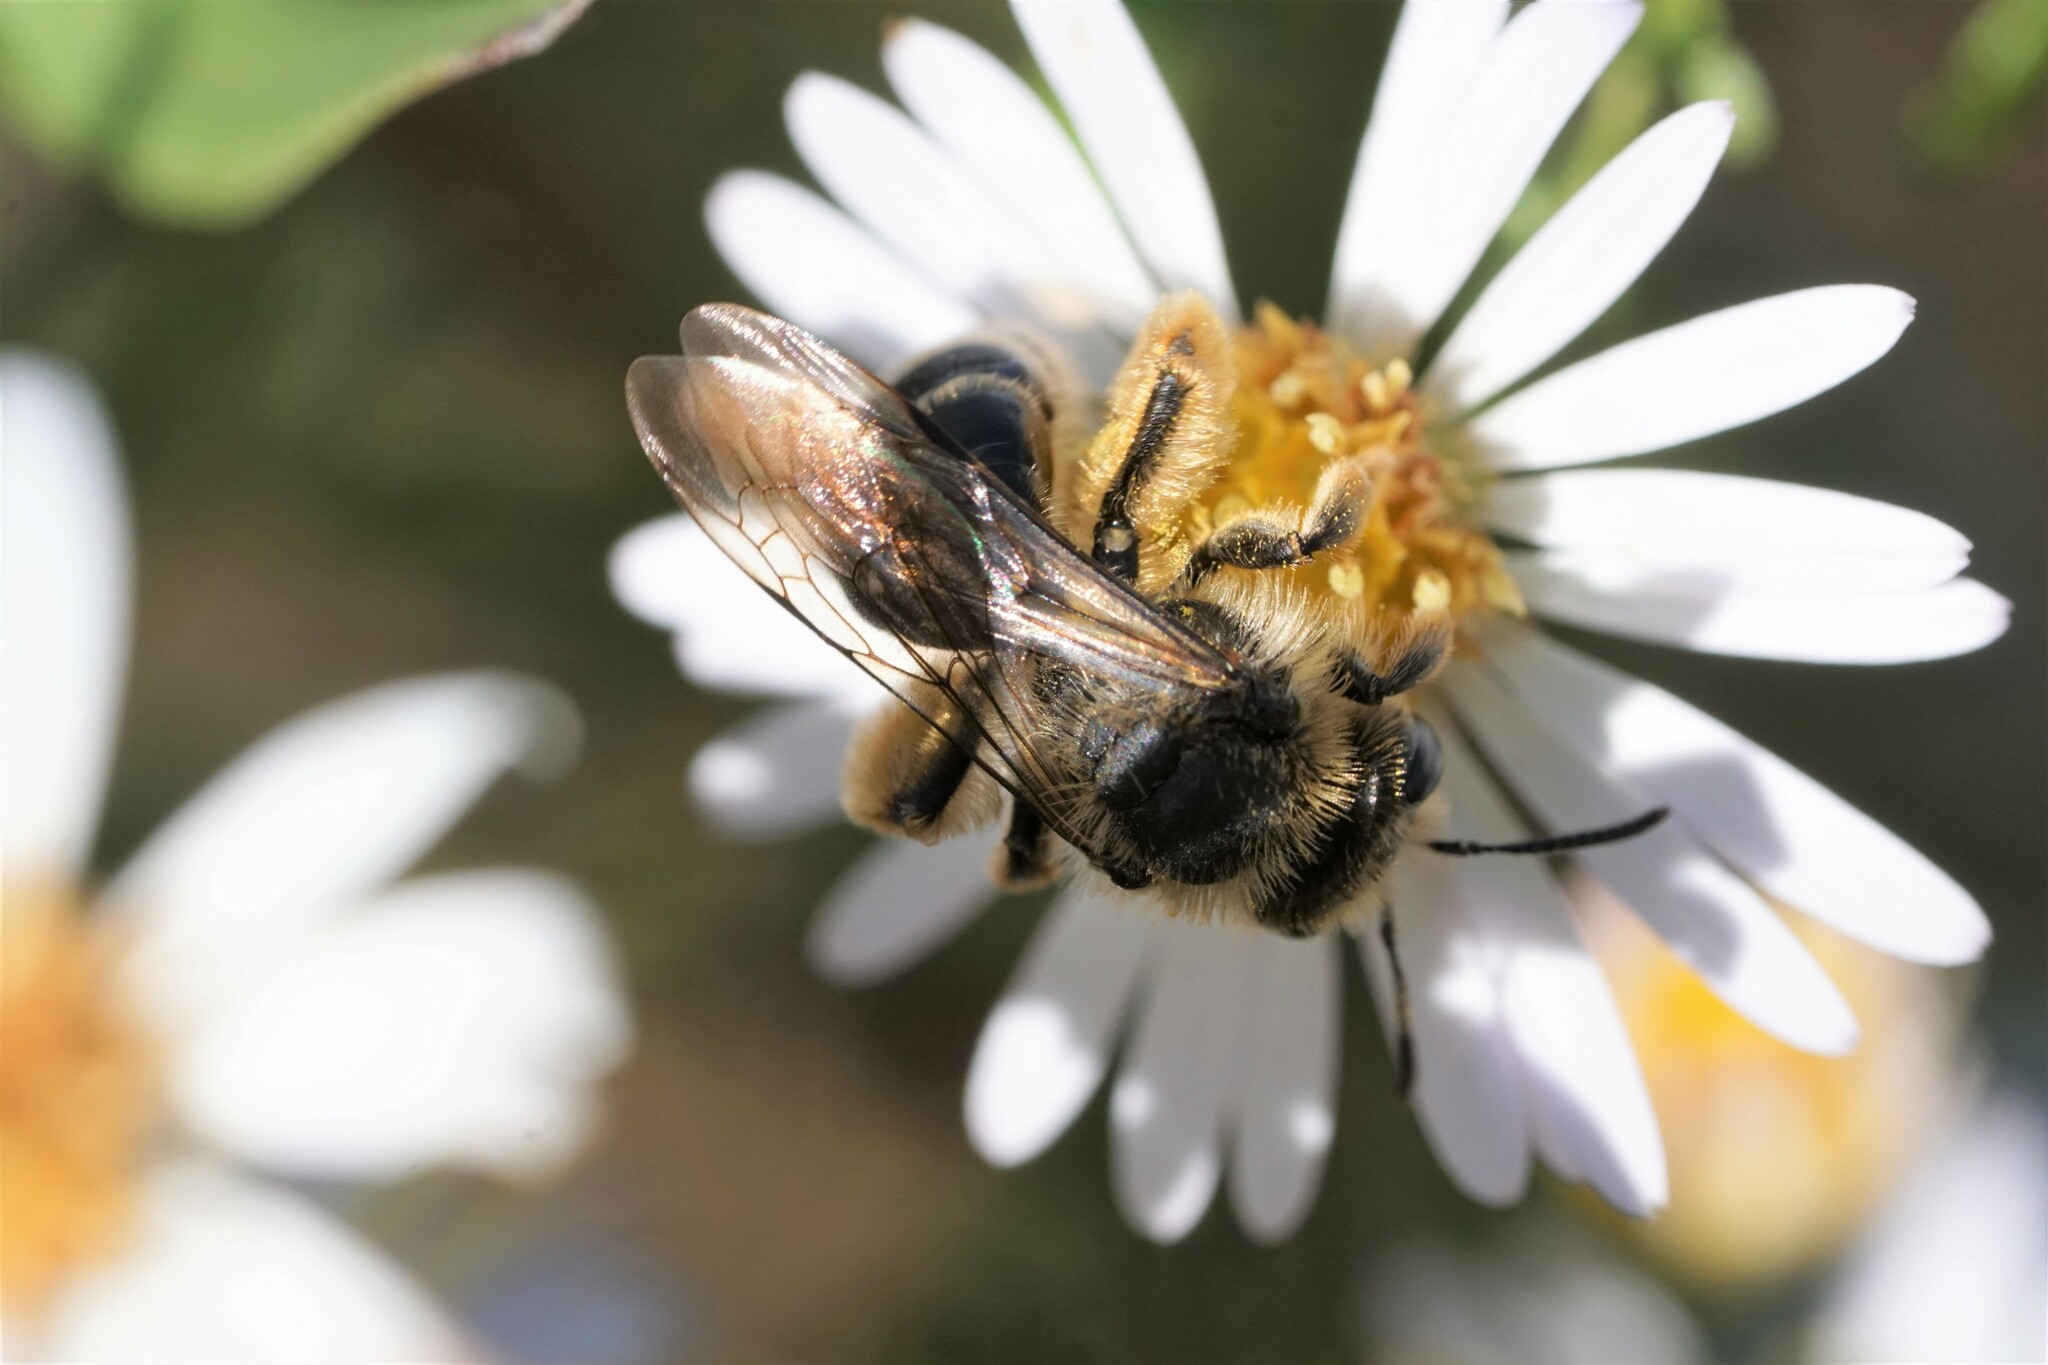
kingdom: Animalia
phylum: Arthropoda
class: Insecta
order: Hymenoptera
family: Andrenidae
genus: Andrena
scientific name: Andrena braccata
